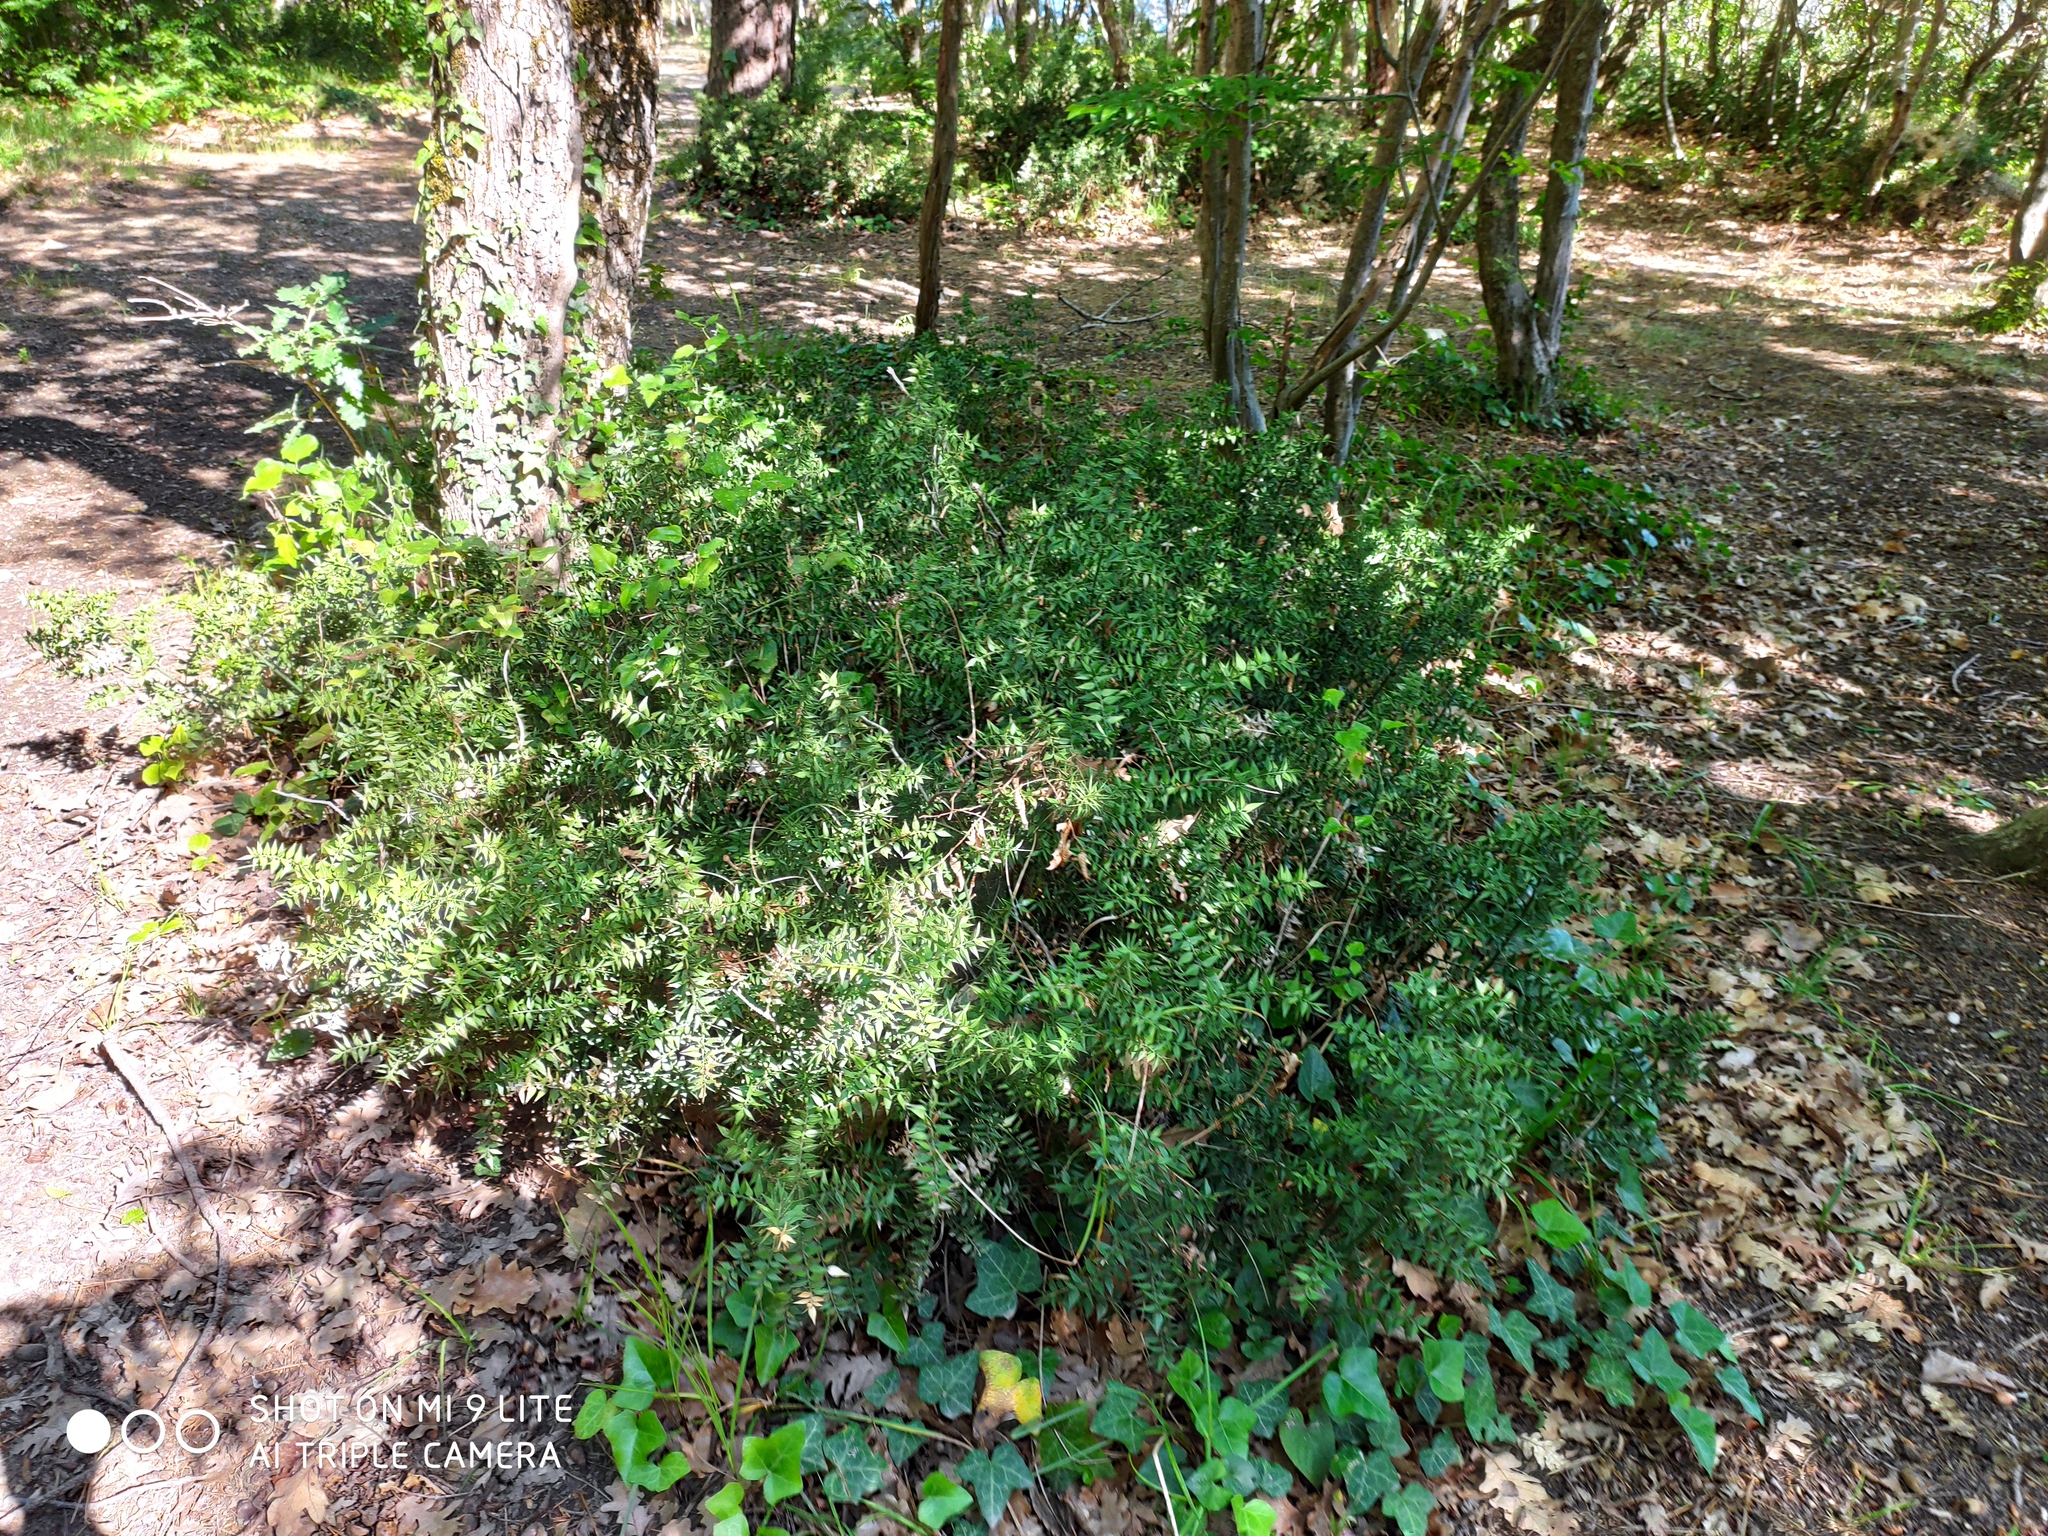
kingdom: Plantae
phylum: Tracheophyta
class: Liliopsida
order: Asparagales
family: Asparagaceae
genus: Ruscus
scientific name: Ruscus aculeatus
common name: Butcher's-broom
